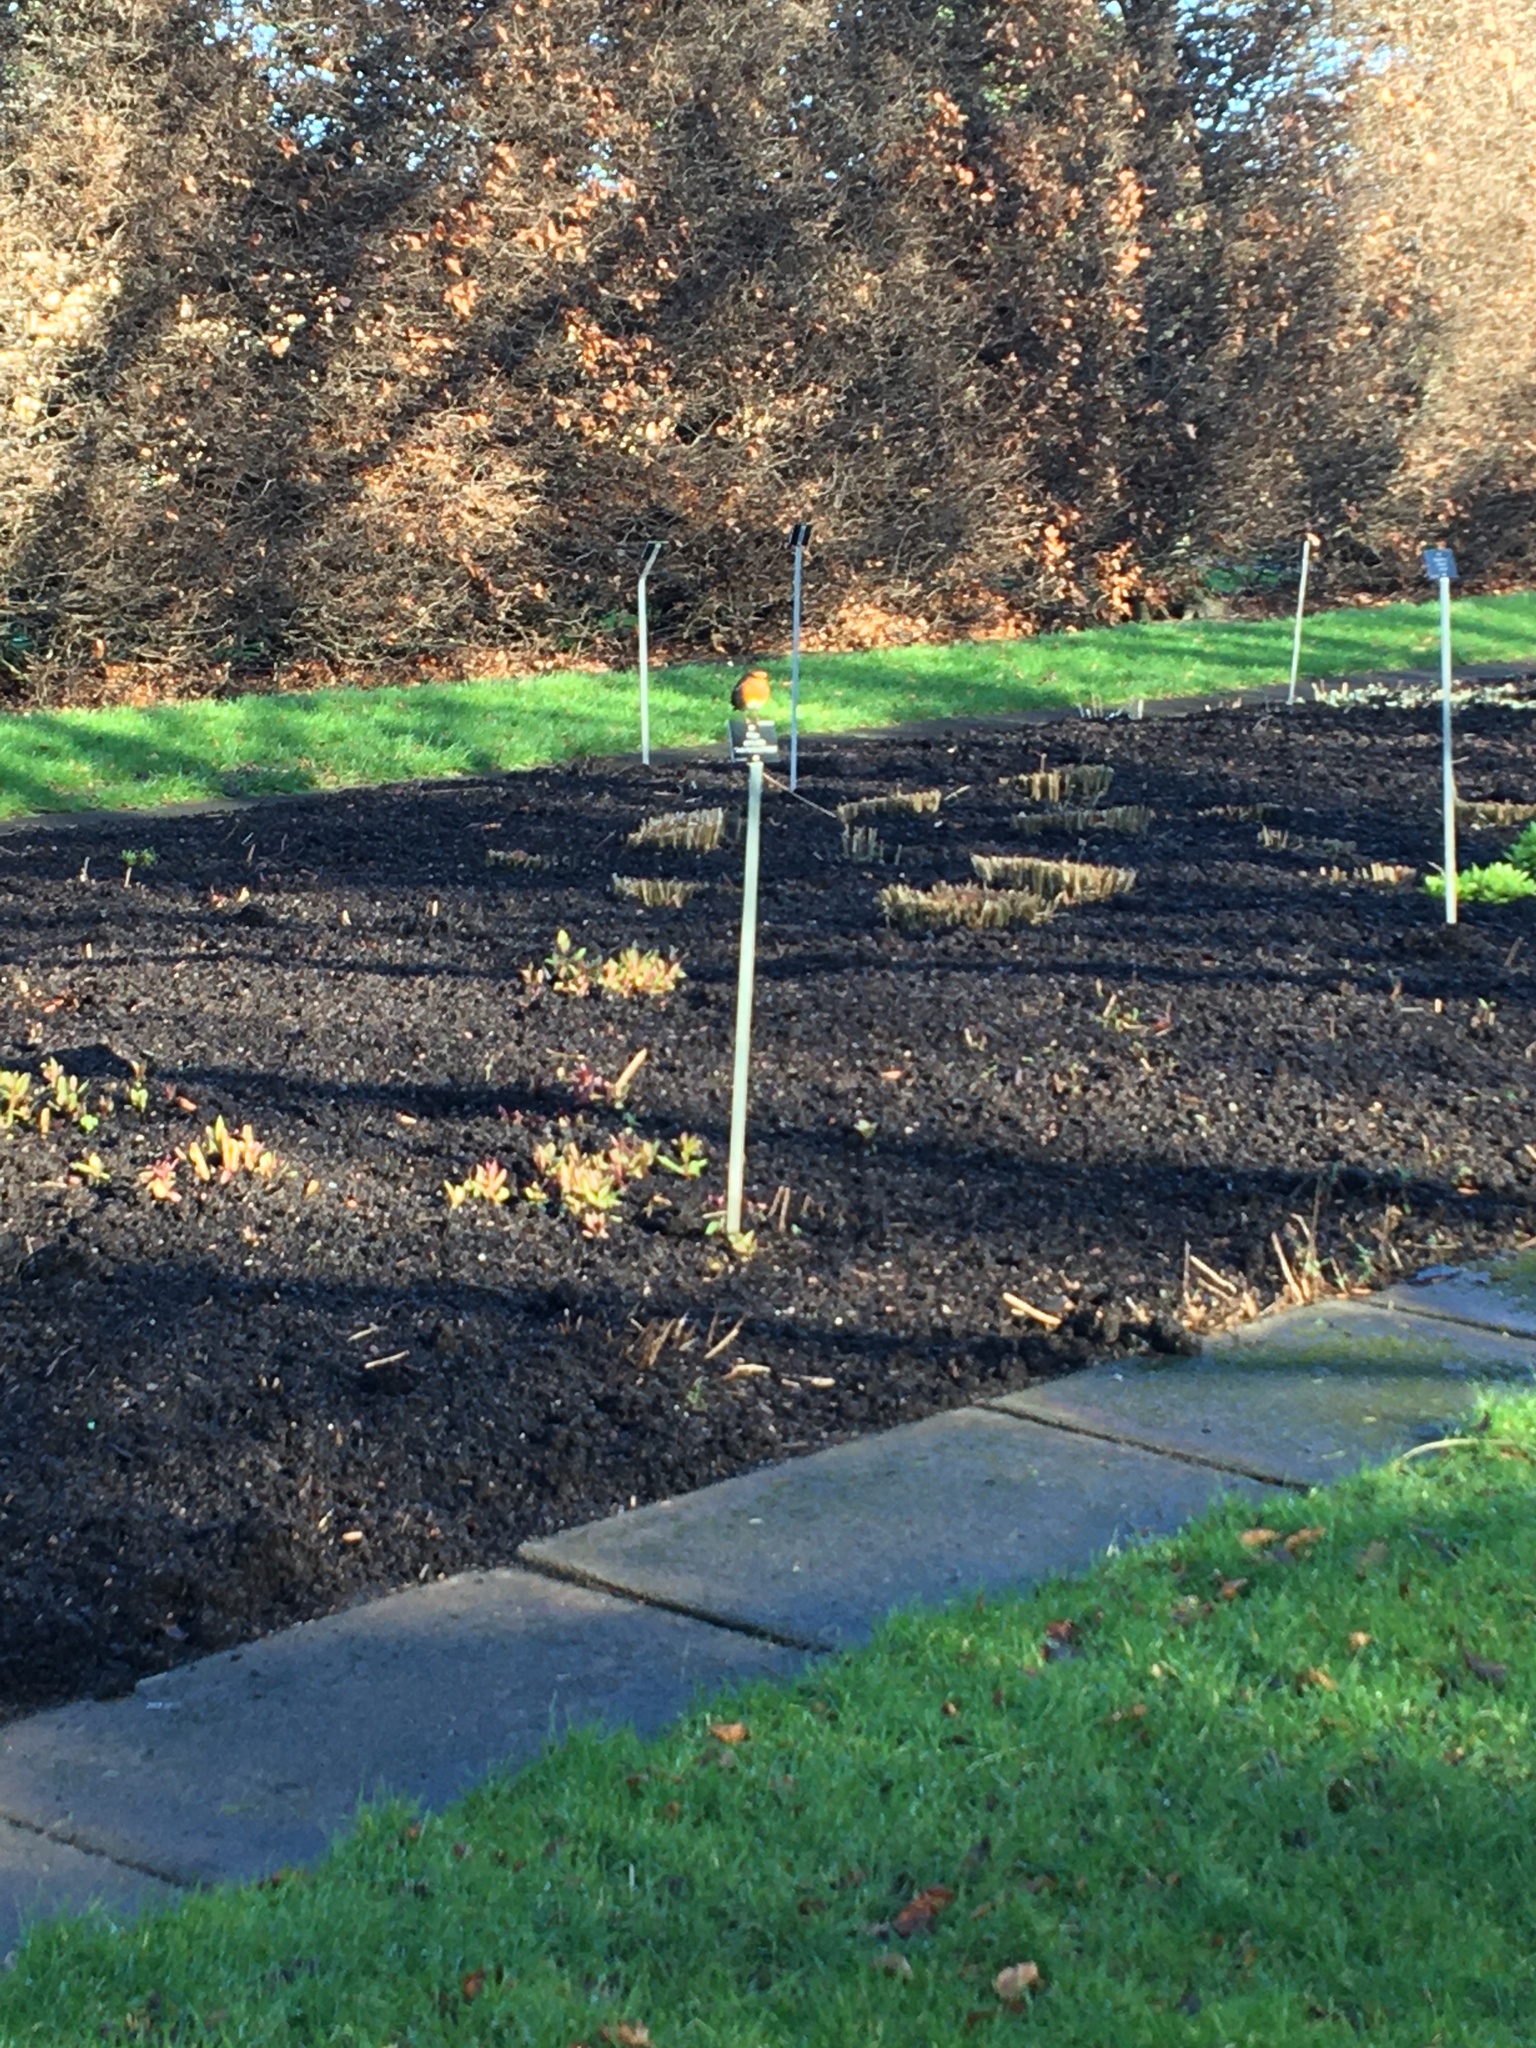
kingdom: Animalia
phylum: Chordata
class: Aves
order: Passeriformes
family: Muscicapidae
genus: Erithacus
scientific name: Erithacus rubecula
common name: European robin
